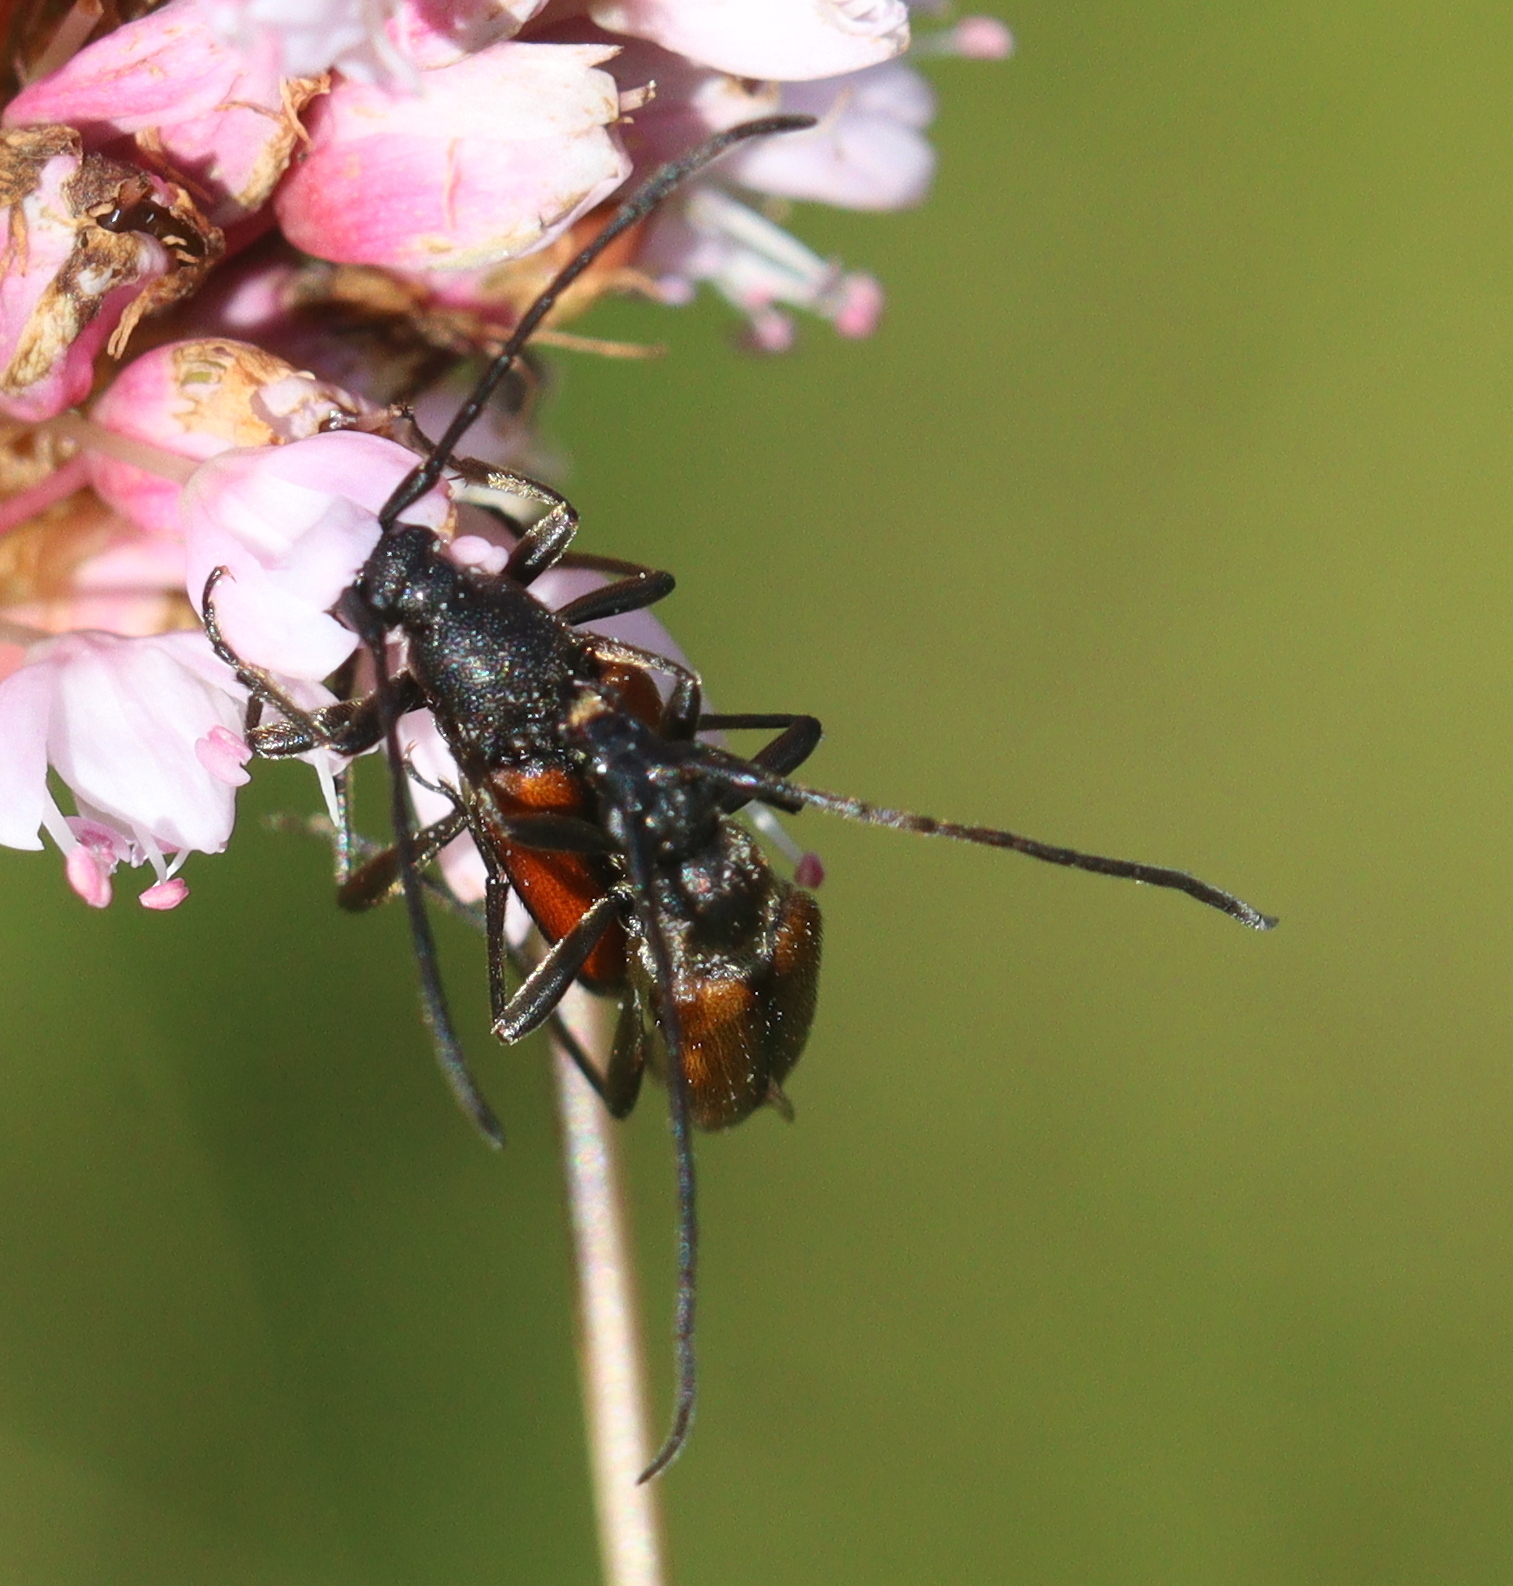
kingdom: Animalia
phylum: Arthropoda
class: Insecta
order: Coleoptera
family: Cerambycidae
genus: Stenurella
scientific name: Stenurella melanura
